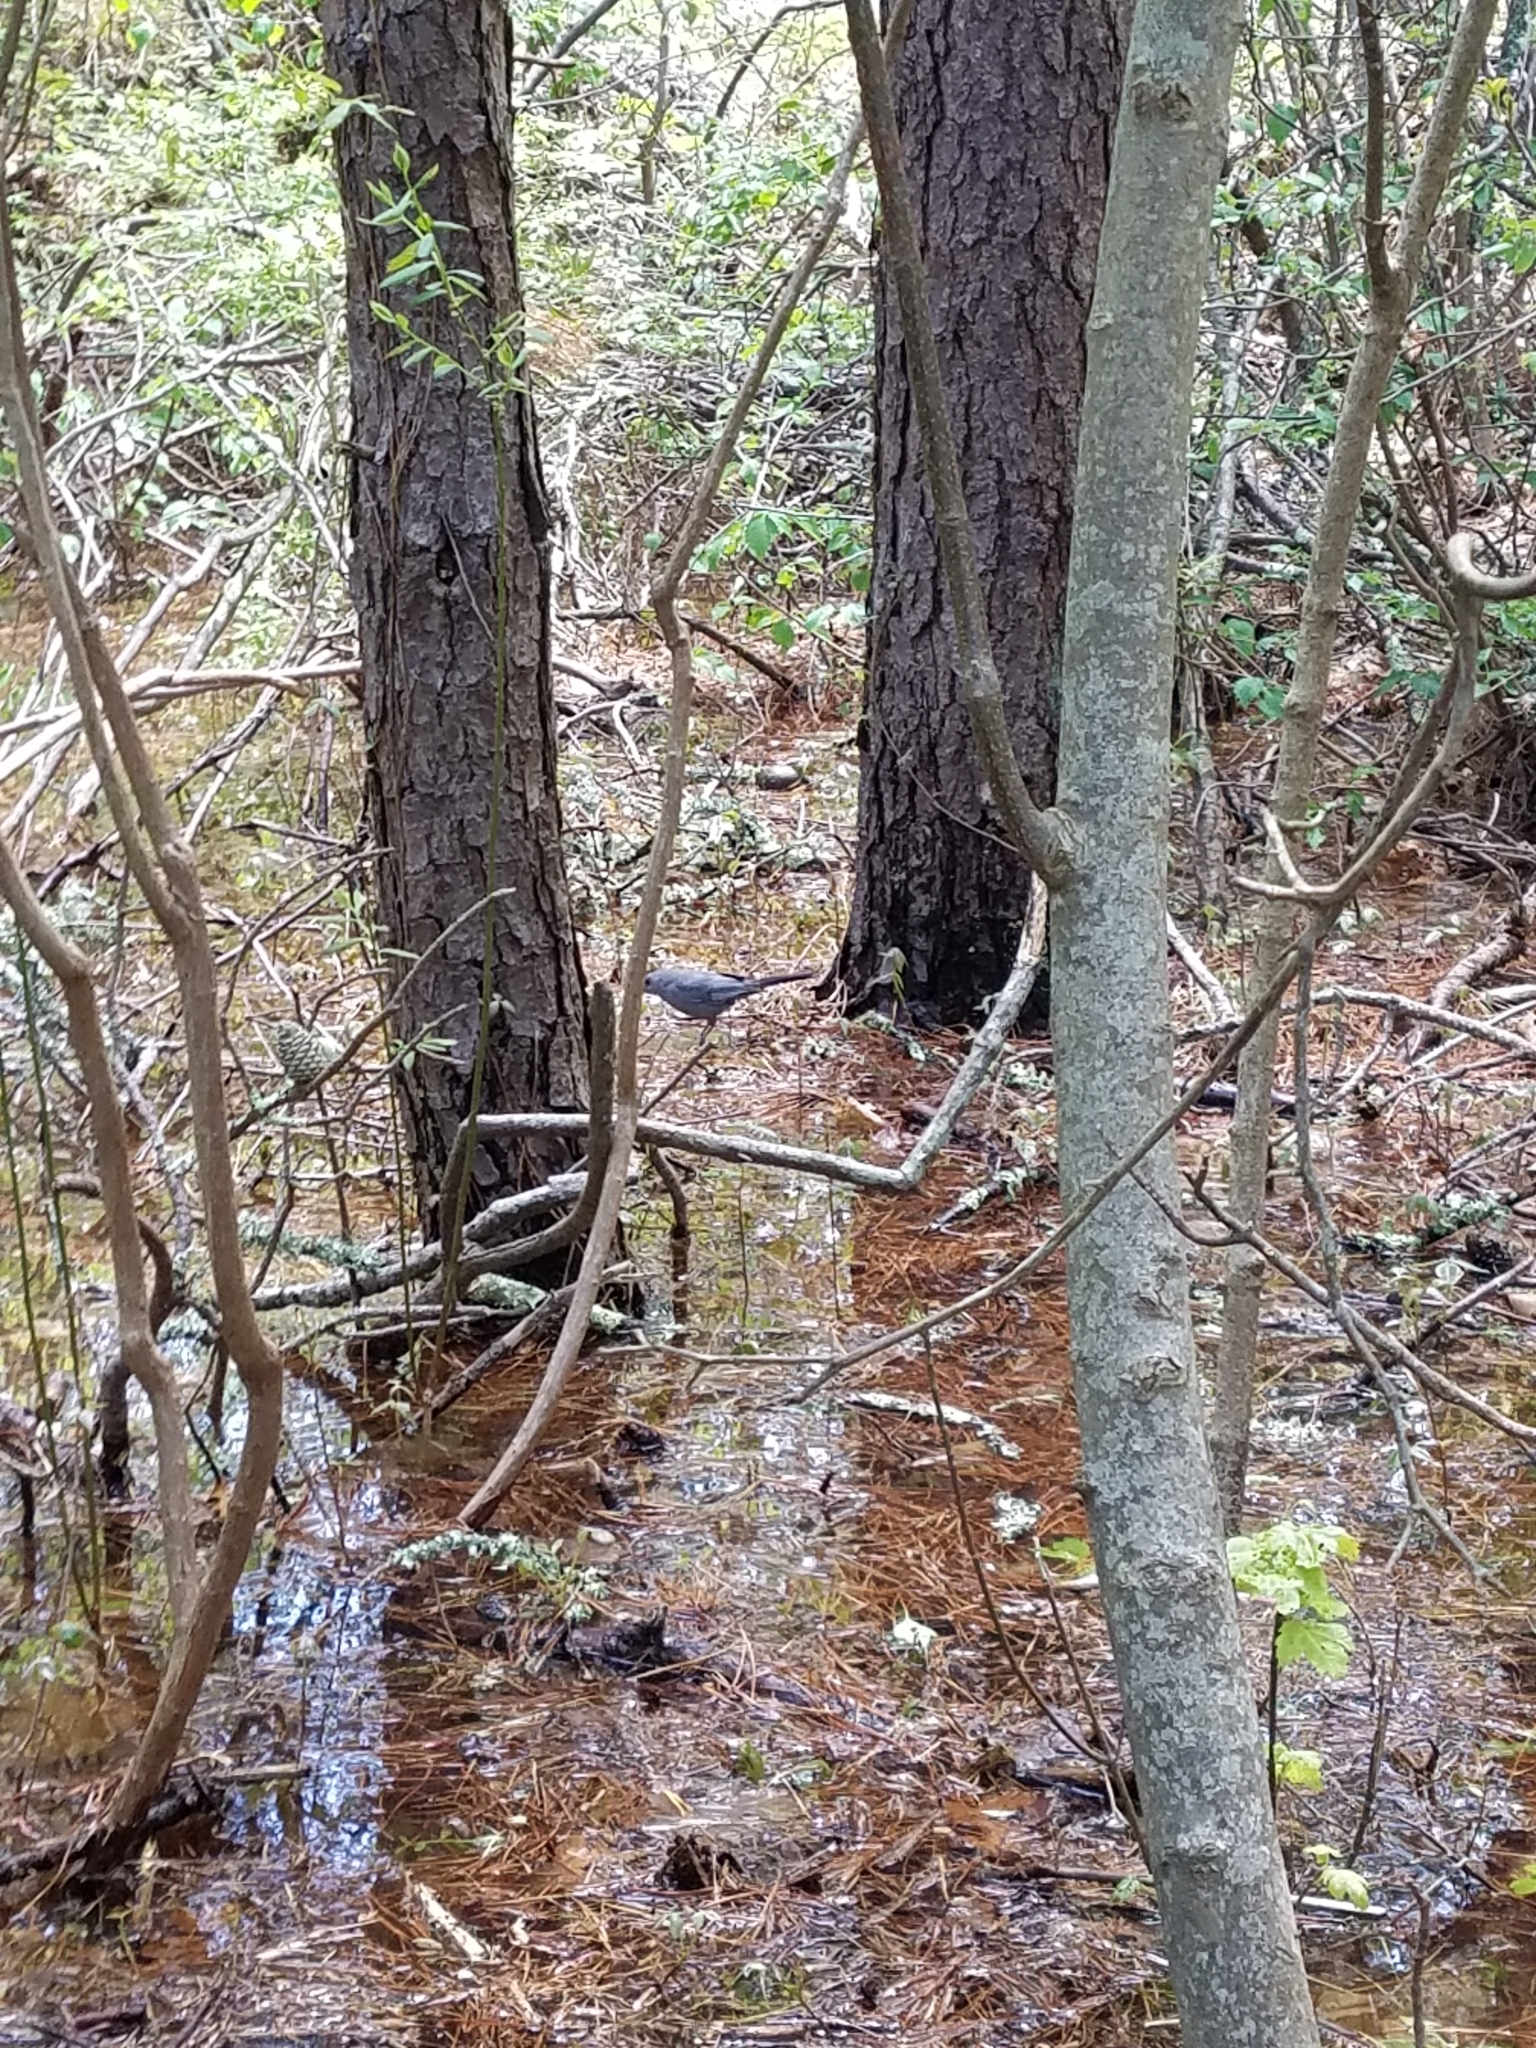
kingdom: Animalia
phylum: Chordata
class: Aves
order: Passeriformes
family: Mimidae
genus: Dumetella
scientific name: Dumetella carolinensis
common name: Gray catbird
